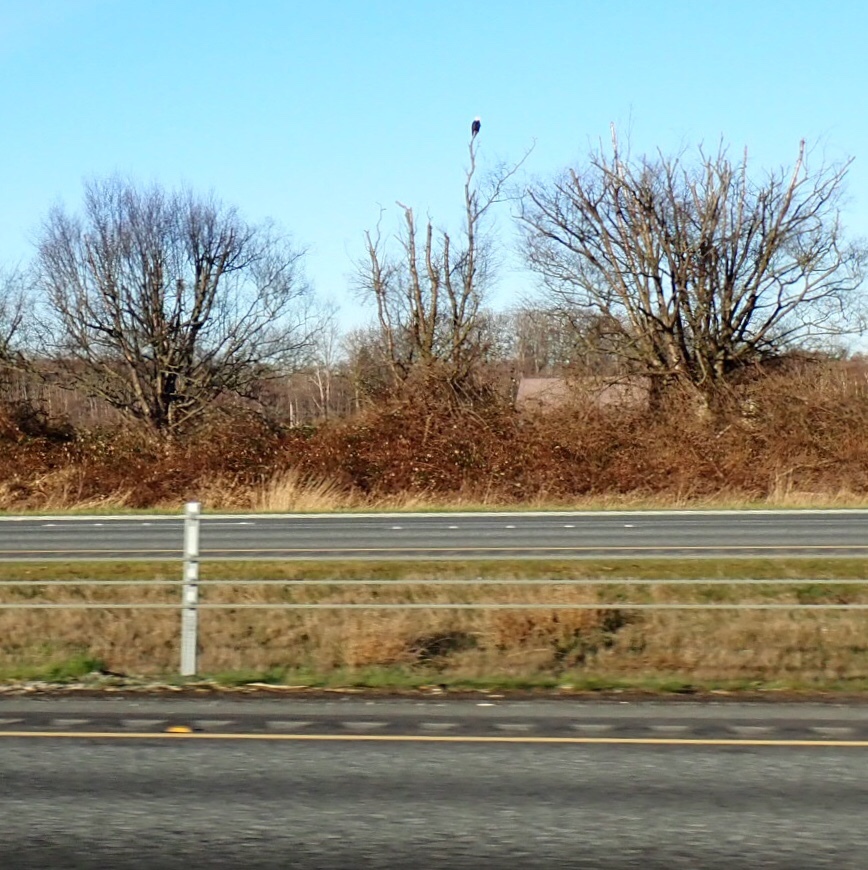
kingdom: Animalia
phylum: Chordata
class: Aves
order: Accipitriformes
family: Accipitridae
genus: Haliaeetus
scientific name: Haliaeetus leucocephalus
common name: Bald eagle
